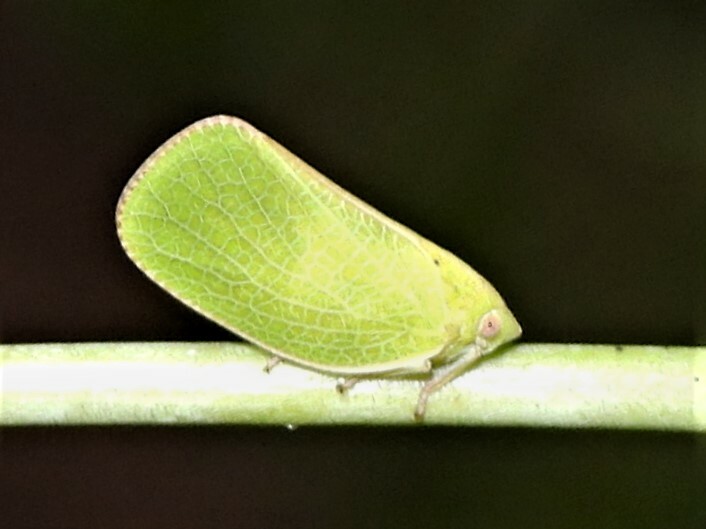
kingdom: Animalia
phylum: Arthropoda
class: Insecta
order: Hemiptera
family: Acanaloniidae
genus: Acanalonia
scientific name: Acanalonia conica
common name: Green cone-headed planthopper
